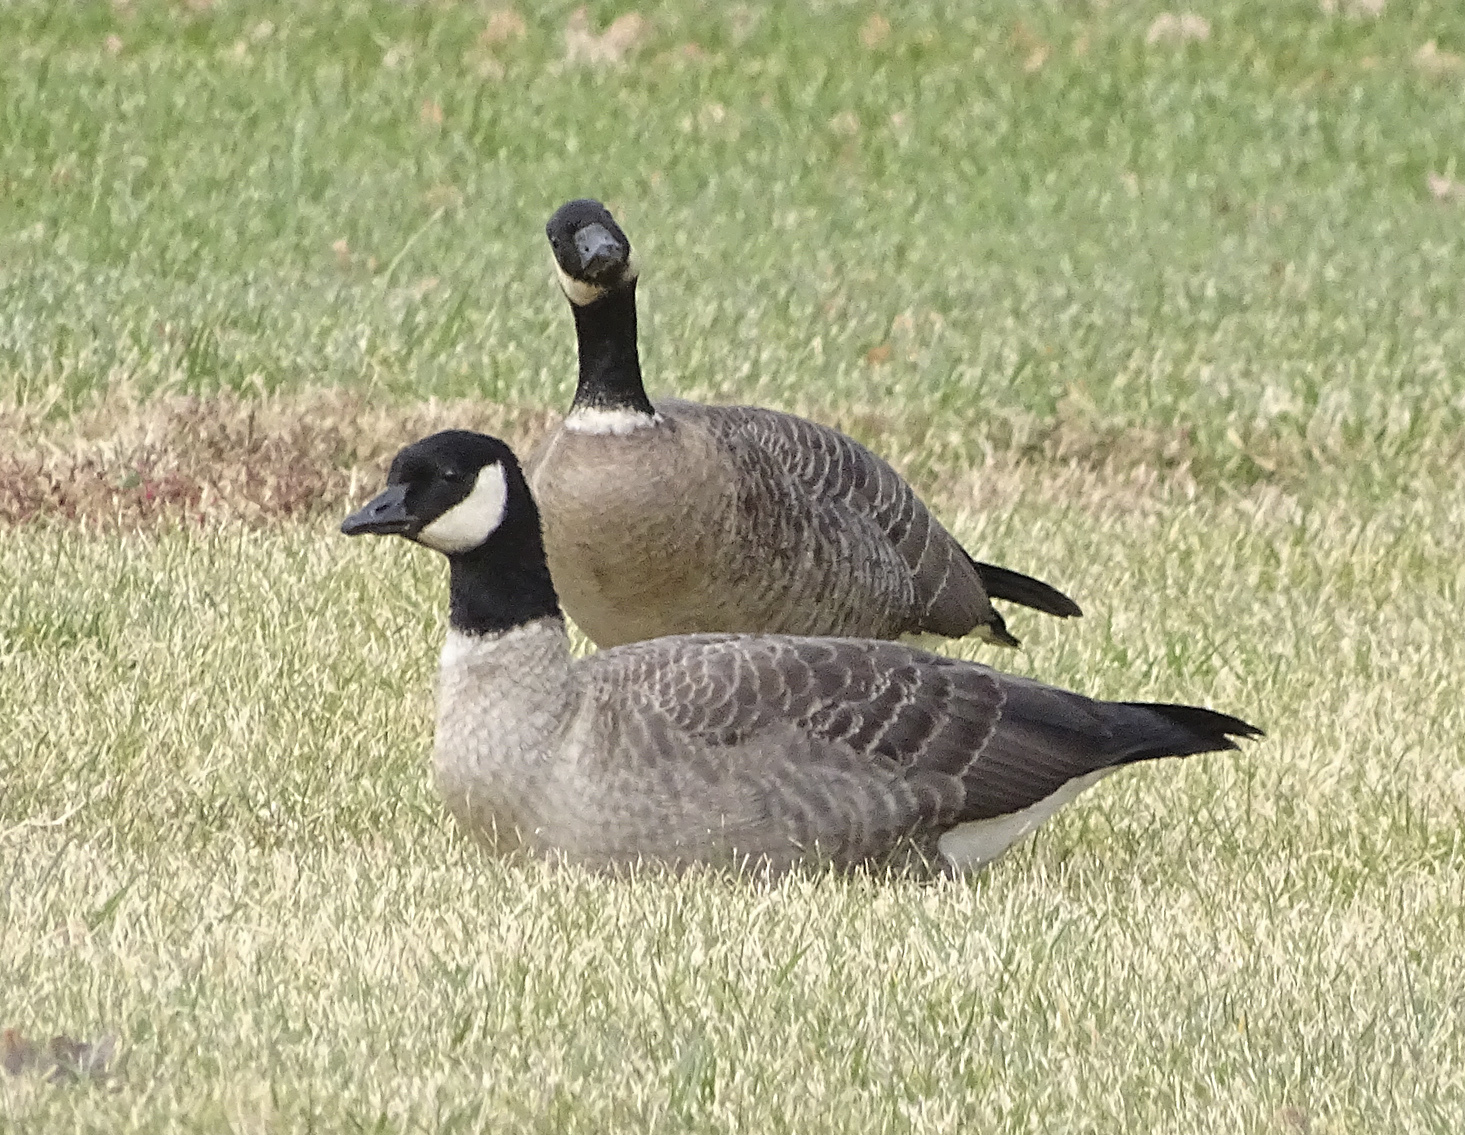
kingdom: Animalia
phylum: Chordata
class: Aves
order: Anseriformes
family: Anatidae
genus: Branta
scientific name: Branta hutchinsii
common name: Cackling goose
